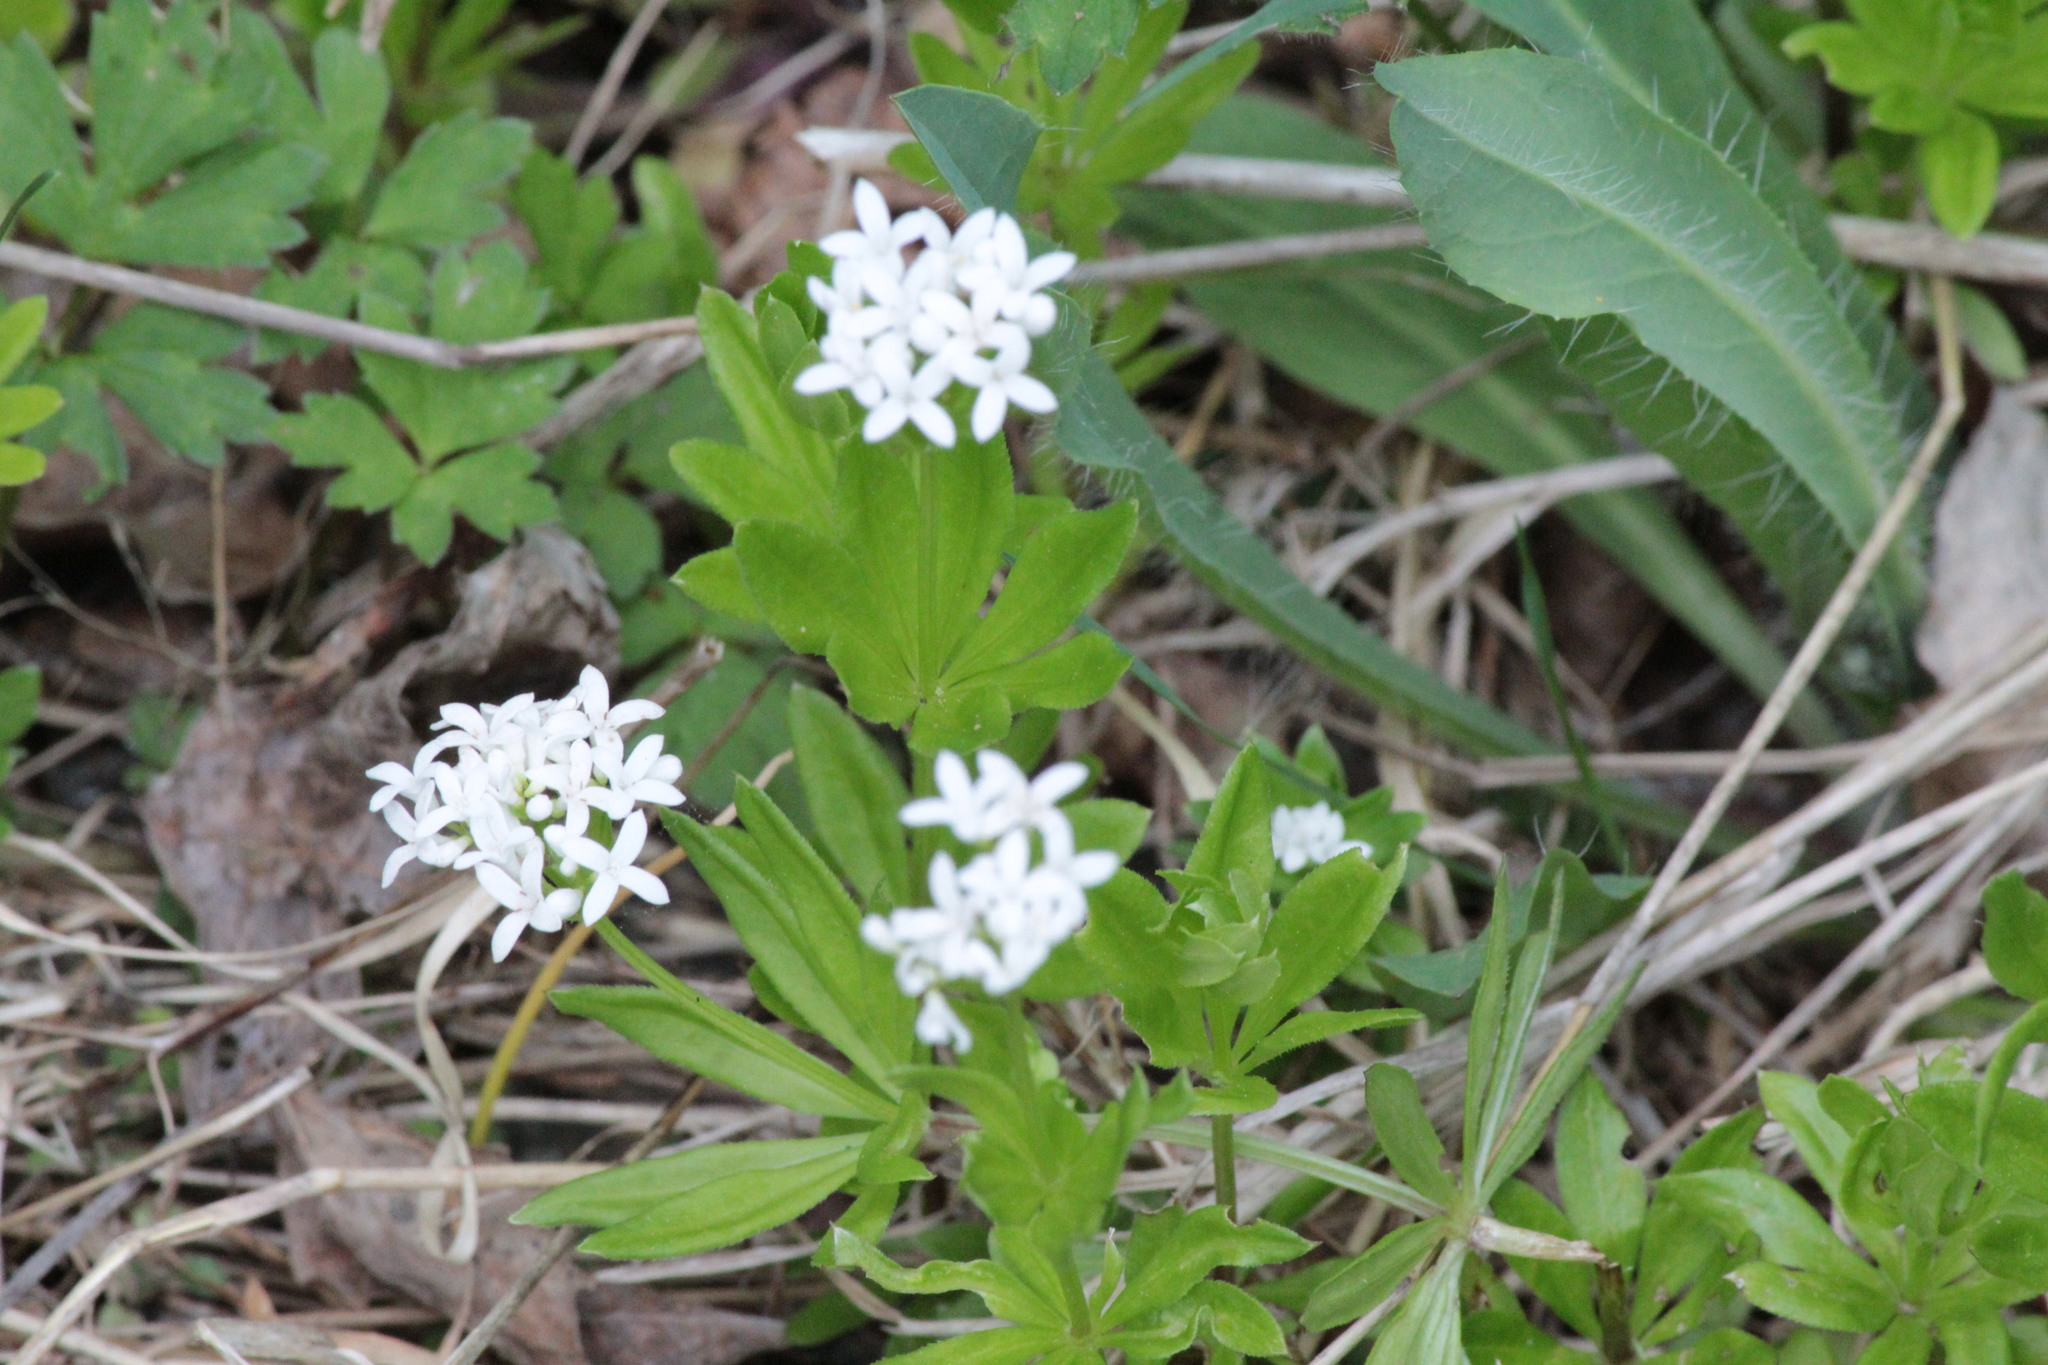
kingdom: Plantae
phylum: Tracheophyta
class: Magnoliopsida
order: Gentianales
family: Rubiaceae
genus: Galium
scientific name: Galium odoratum
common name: Sweet woodruff
